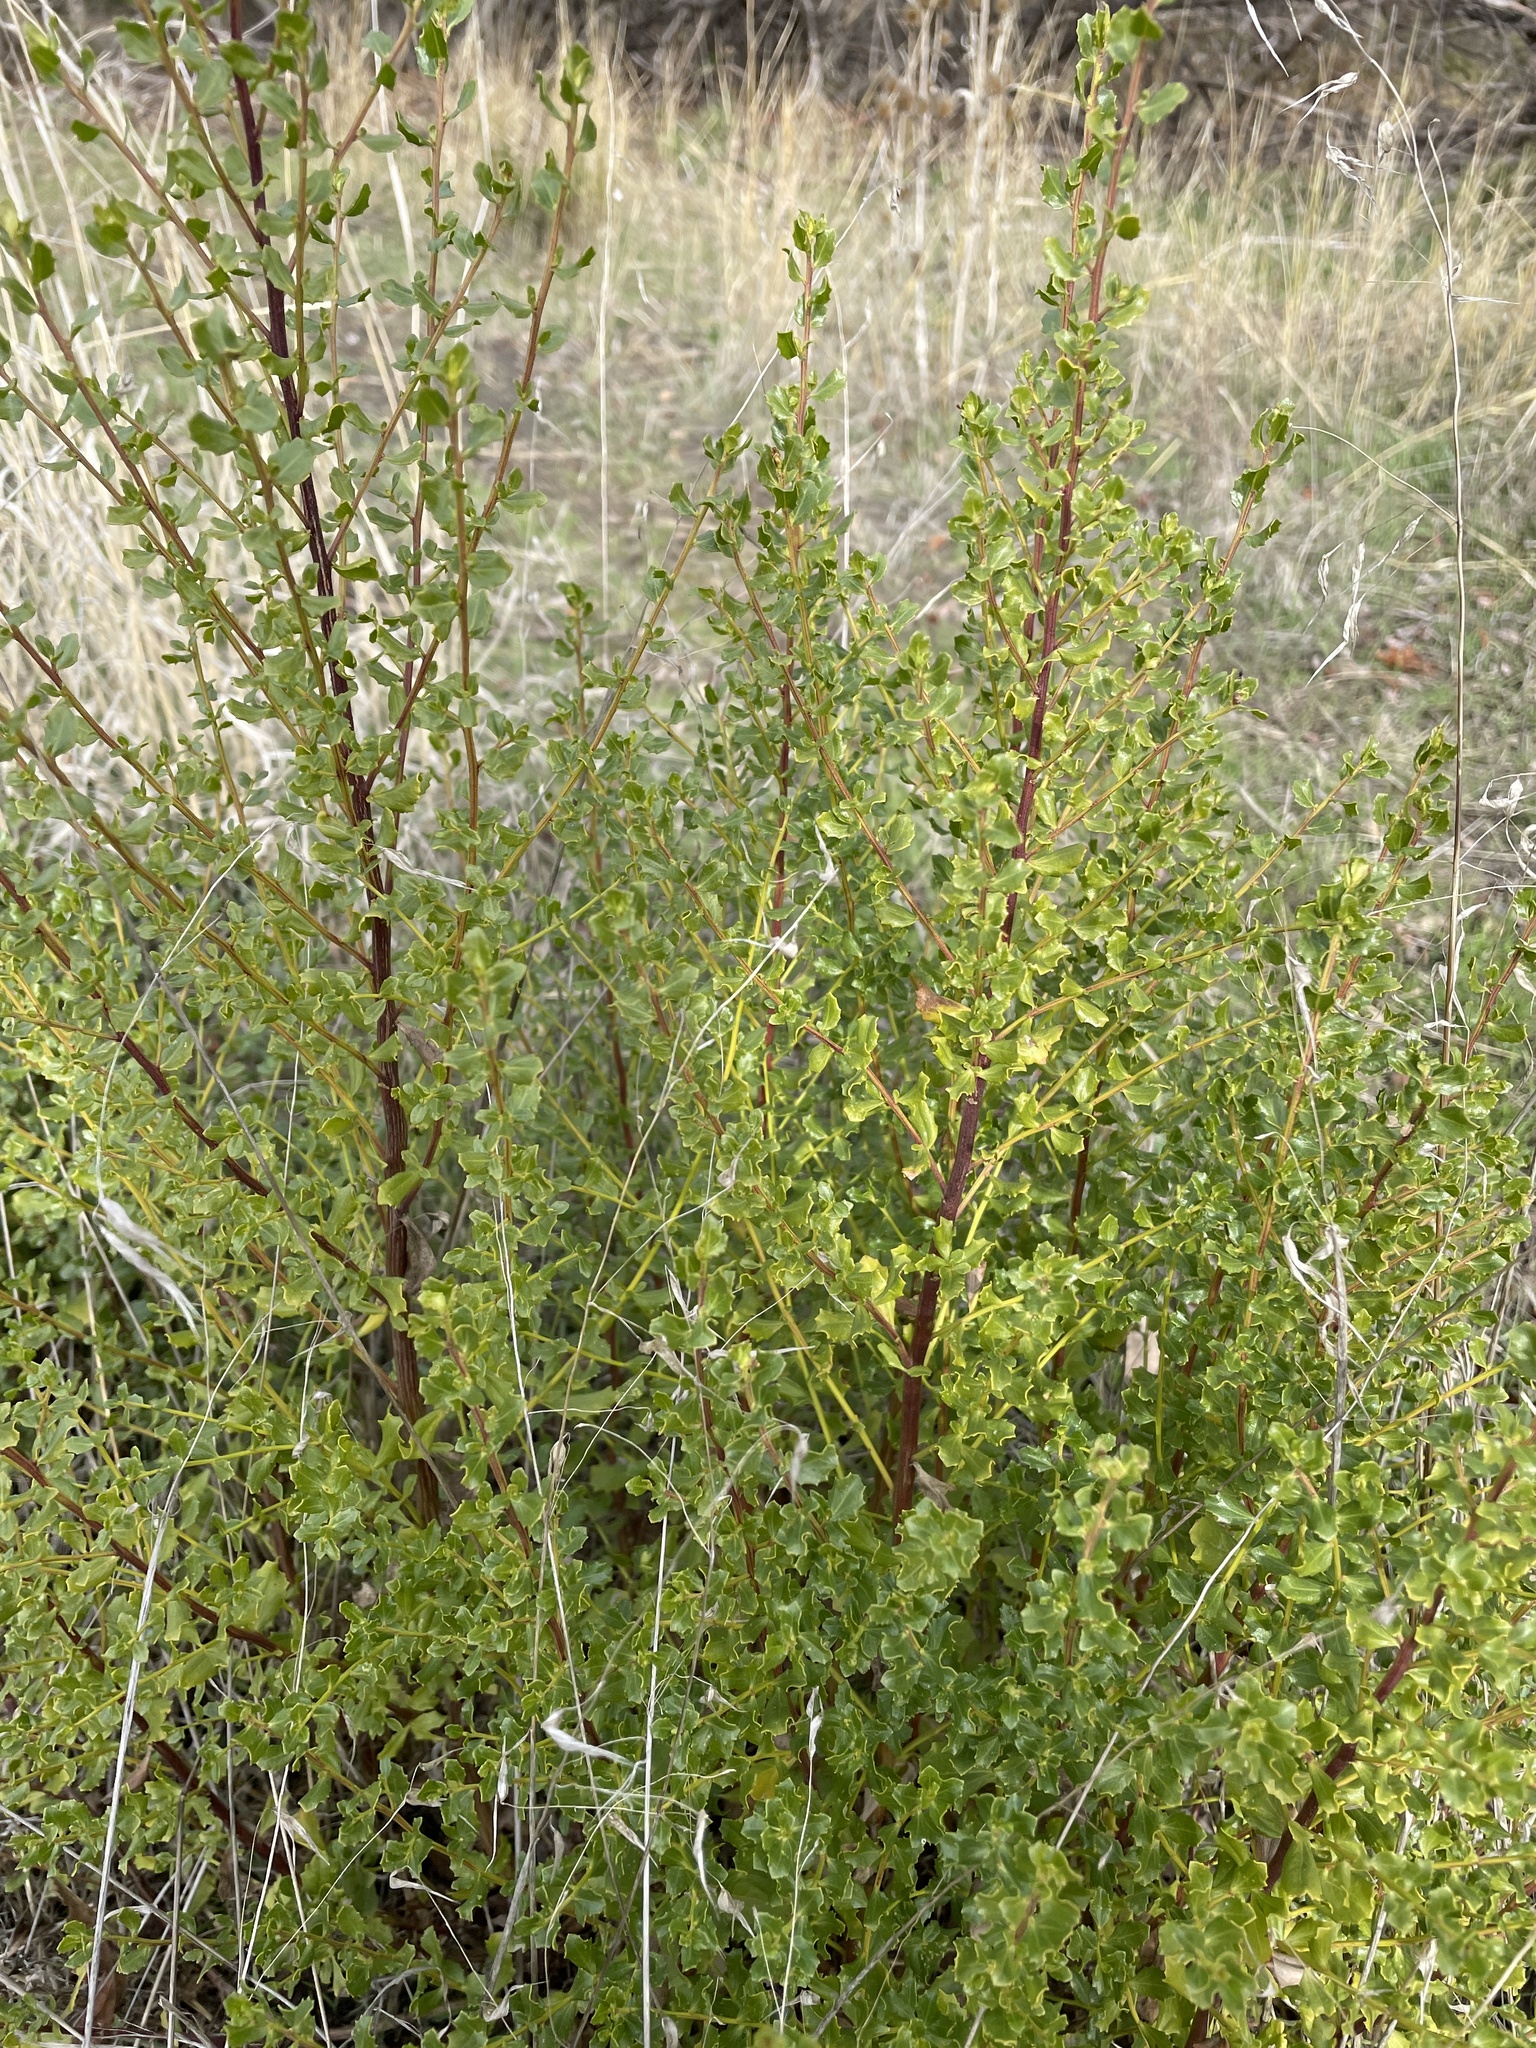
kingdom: Plantae
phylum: Tracheophyta
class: Magnoliopsida
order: Asterales
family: Asteraceae
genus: Baccharis
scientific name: Baccharis pilularis
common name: Coyotebrush
